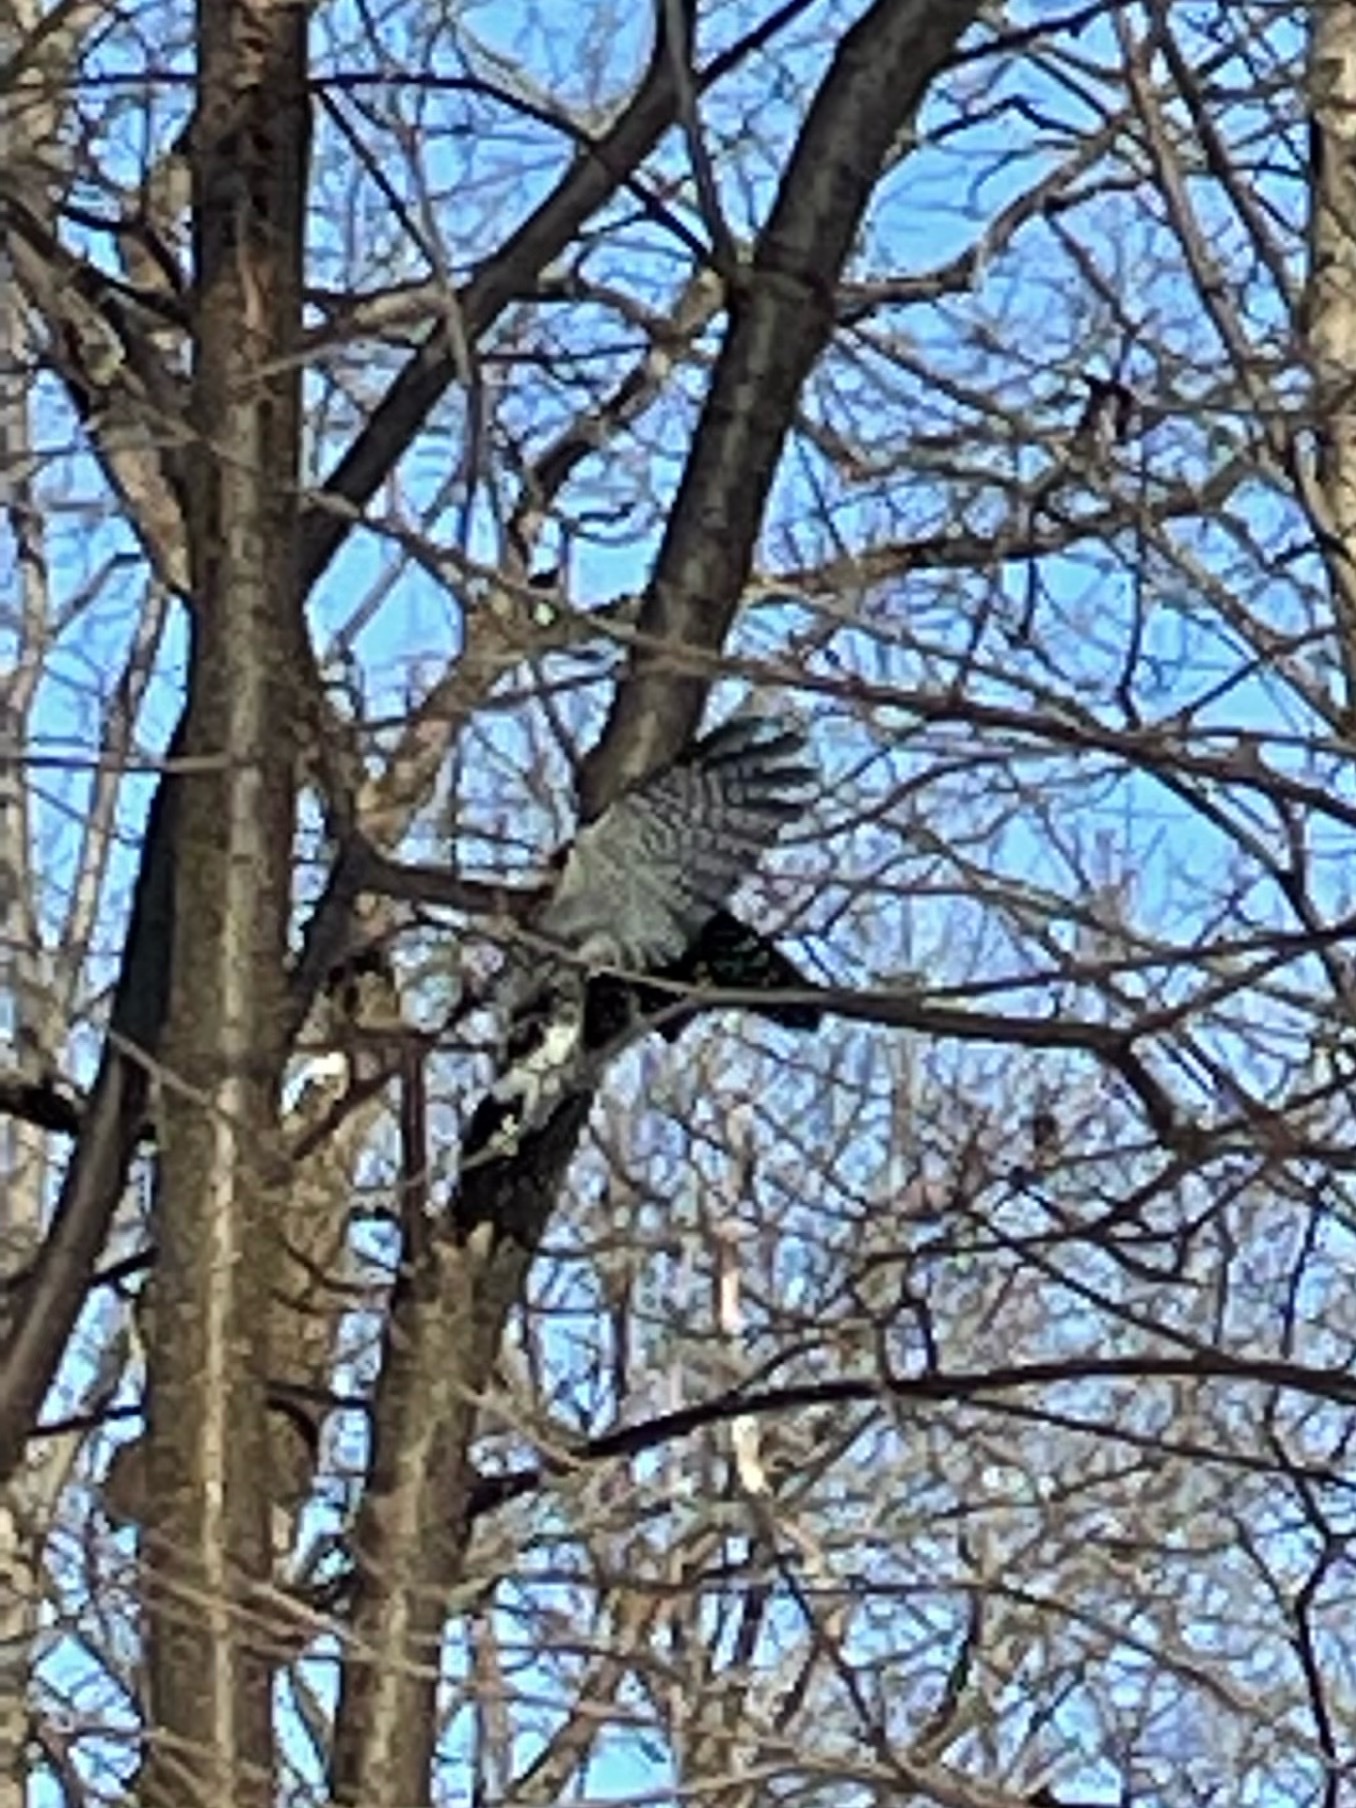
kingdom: Animalia
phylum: Chordata
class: Aves
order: Piciformes
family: Picidae
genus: Sphyrapicus
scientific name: Sphyrapicus varius
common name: Yellow-bellied sapsucker
